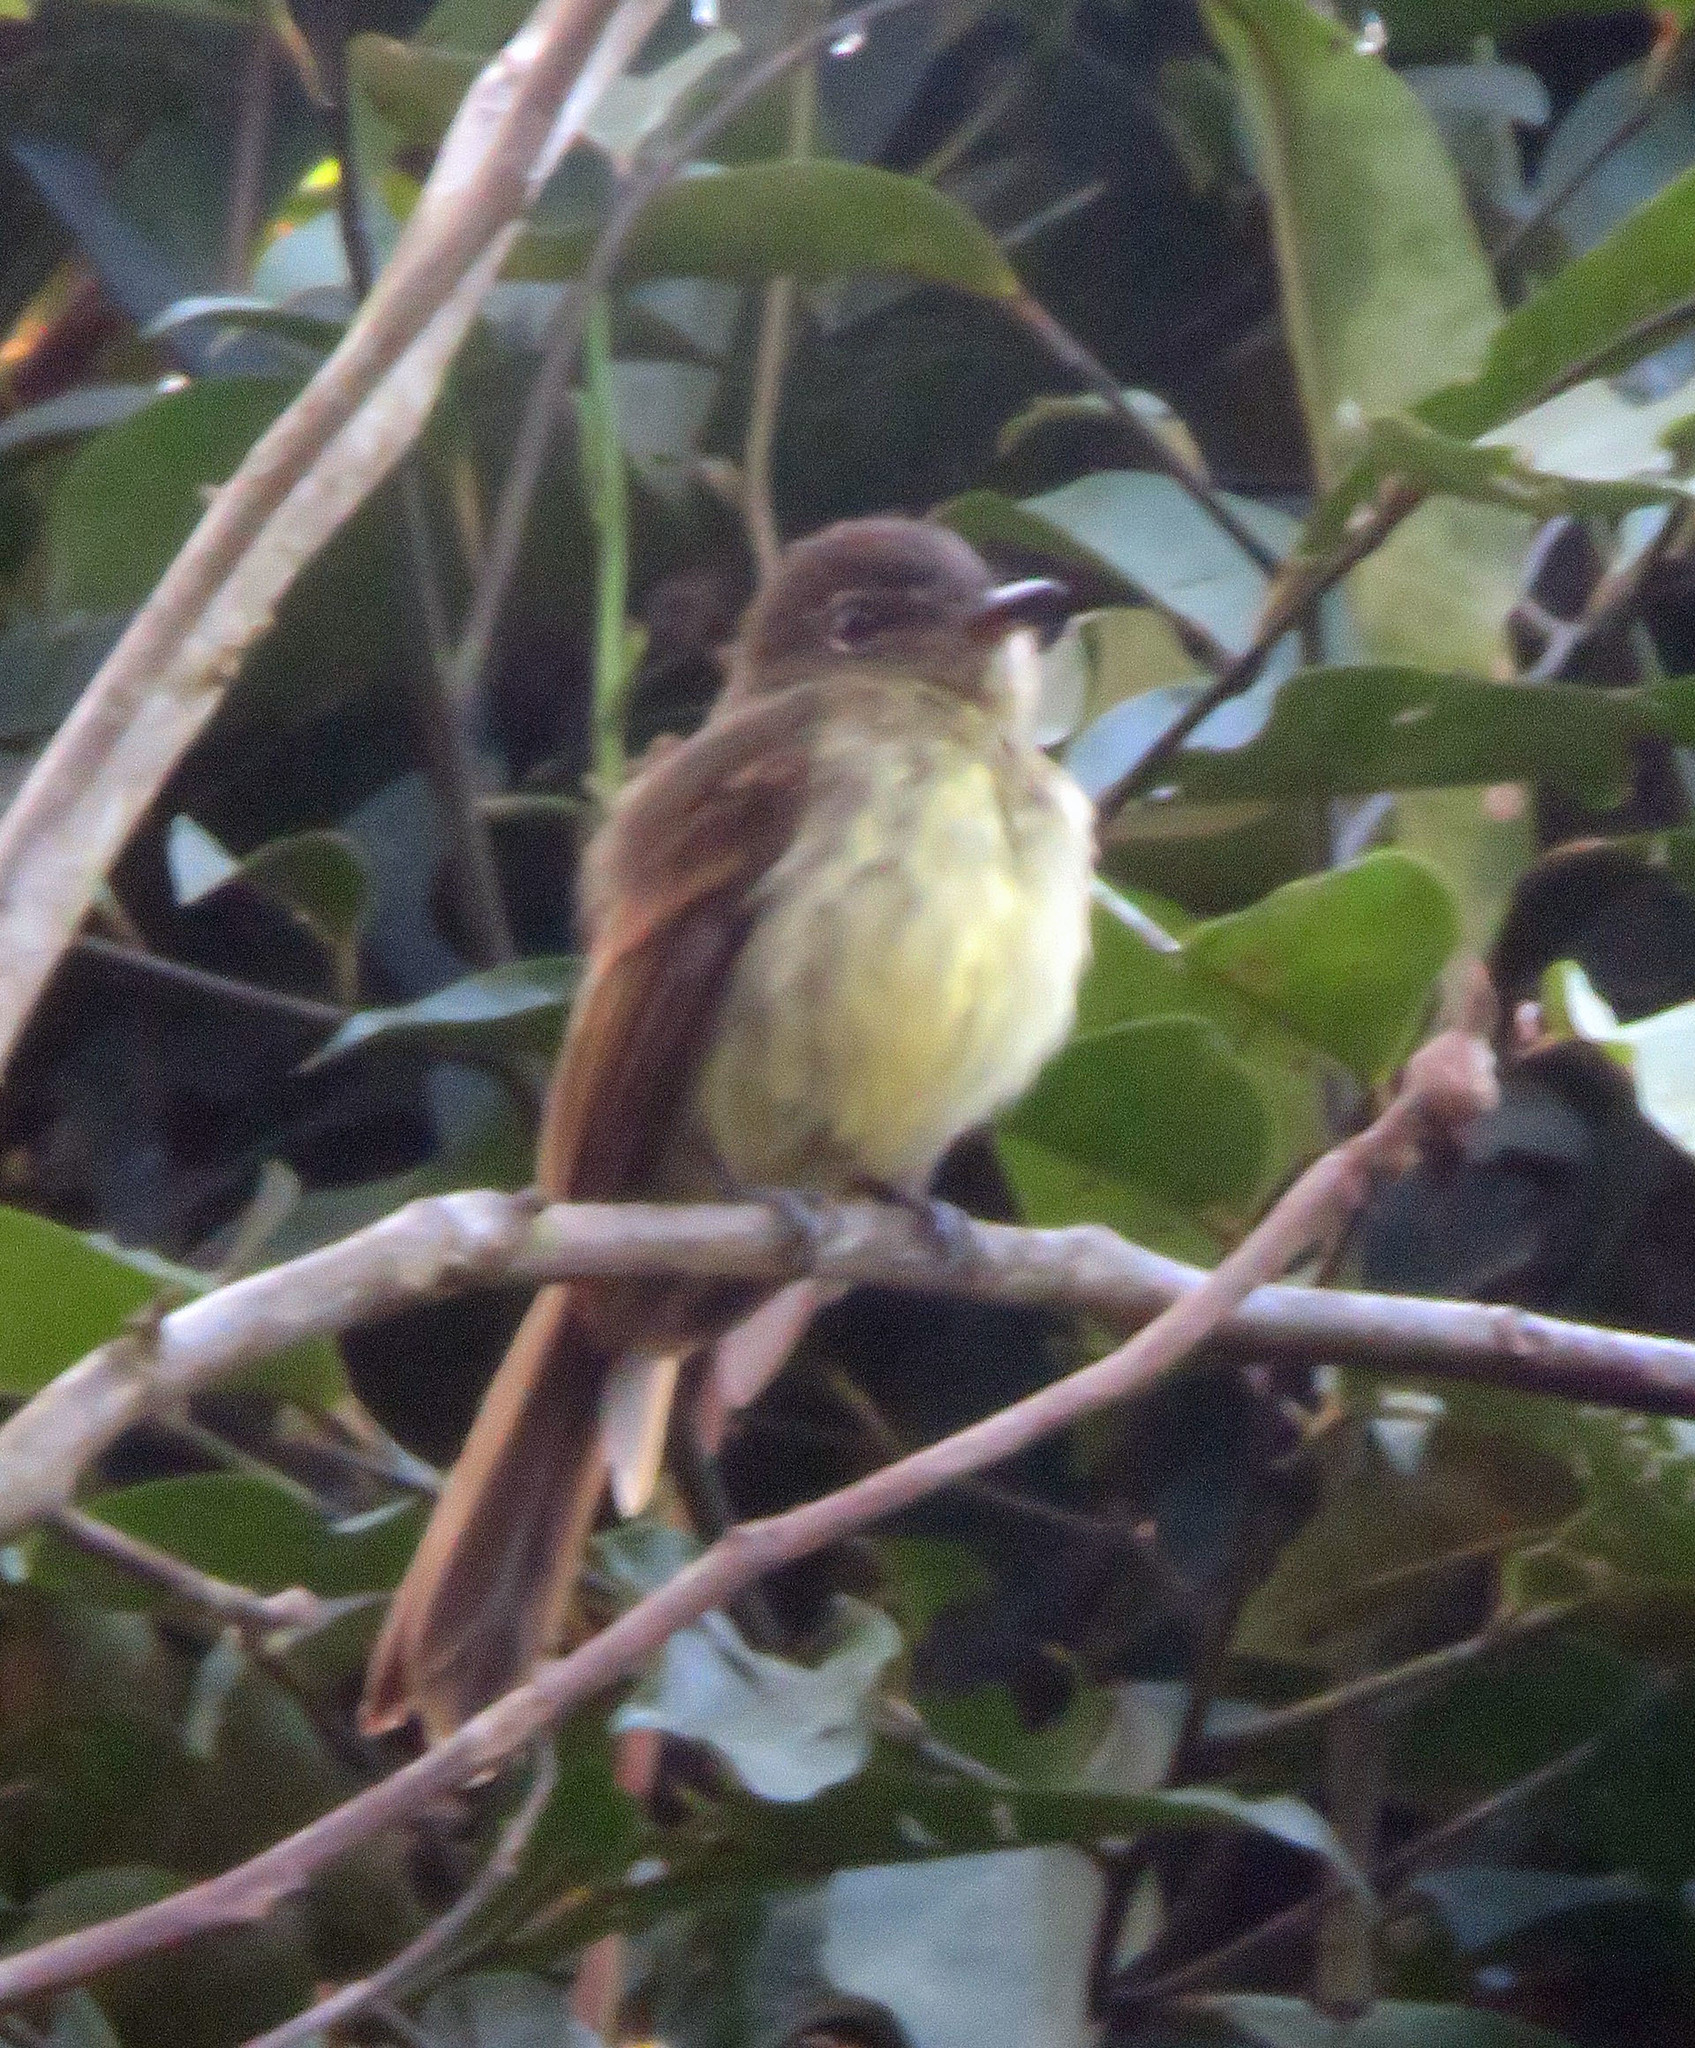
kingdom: Animalia
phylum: Chordata
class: Aves
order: Passeriformes
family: Tyrannidae
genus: Ramphotrigon
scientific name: Ramphotrigon fuscicauda
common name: Dusky-tailed flatbill
